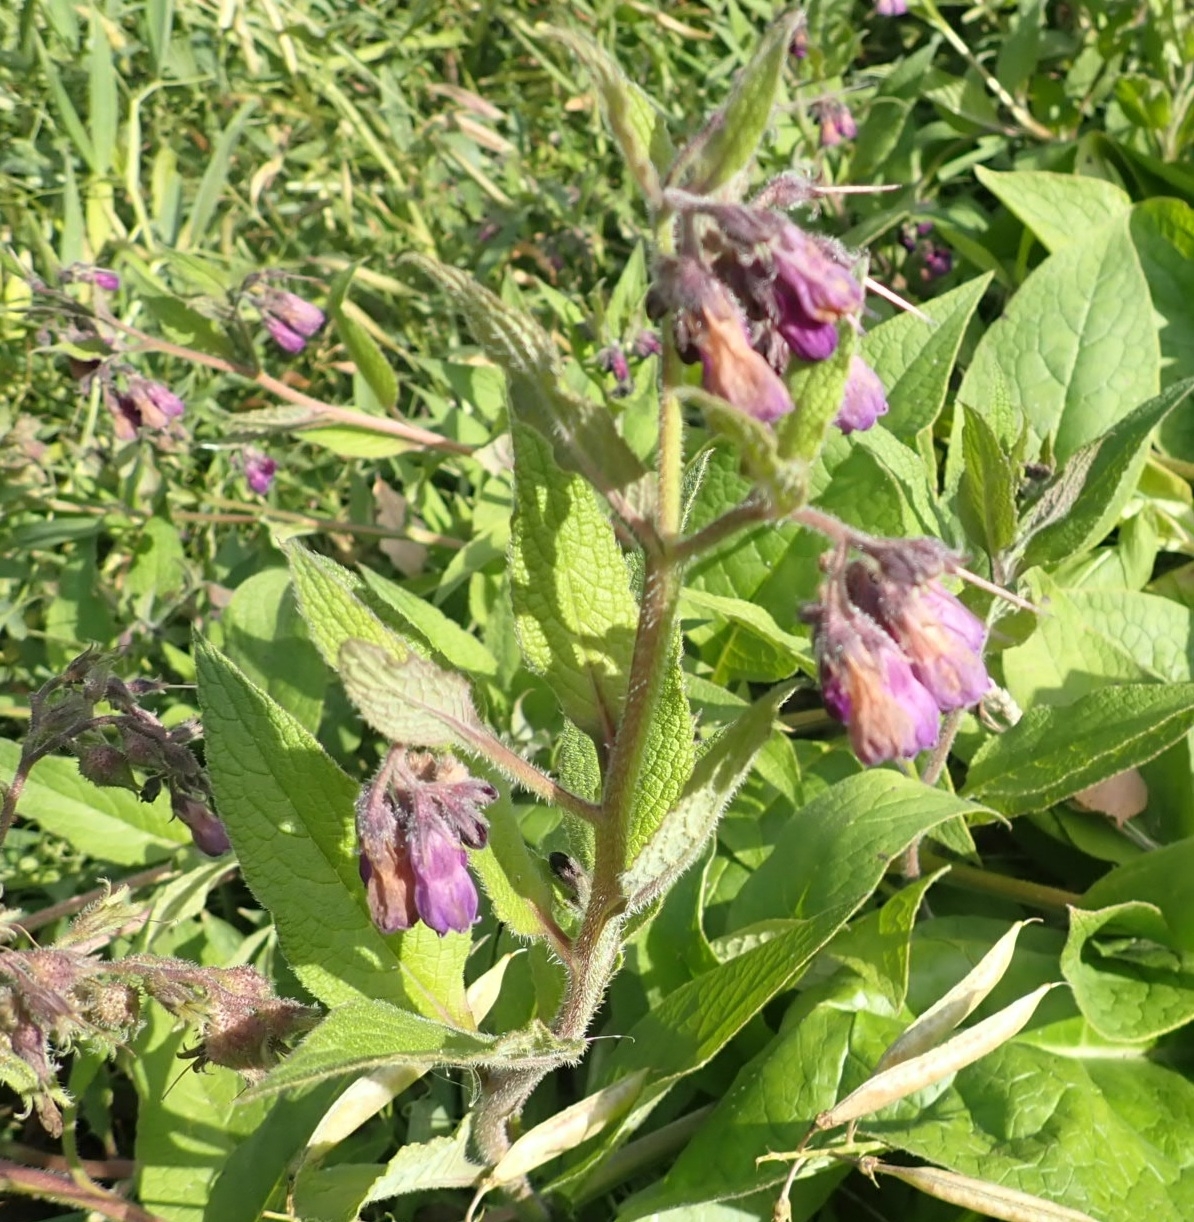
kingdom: Plantae
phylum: Tracheophyta
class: Magnoliopsida
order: Boraginales
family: Boraginaceae
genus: Symphytum
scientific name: Symphytum officinale
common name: Common comfrey
